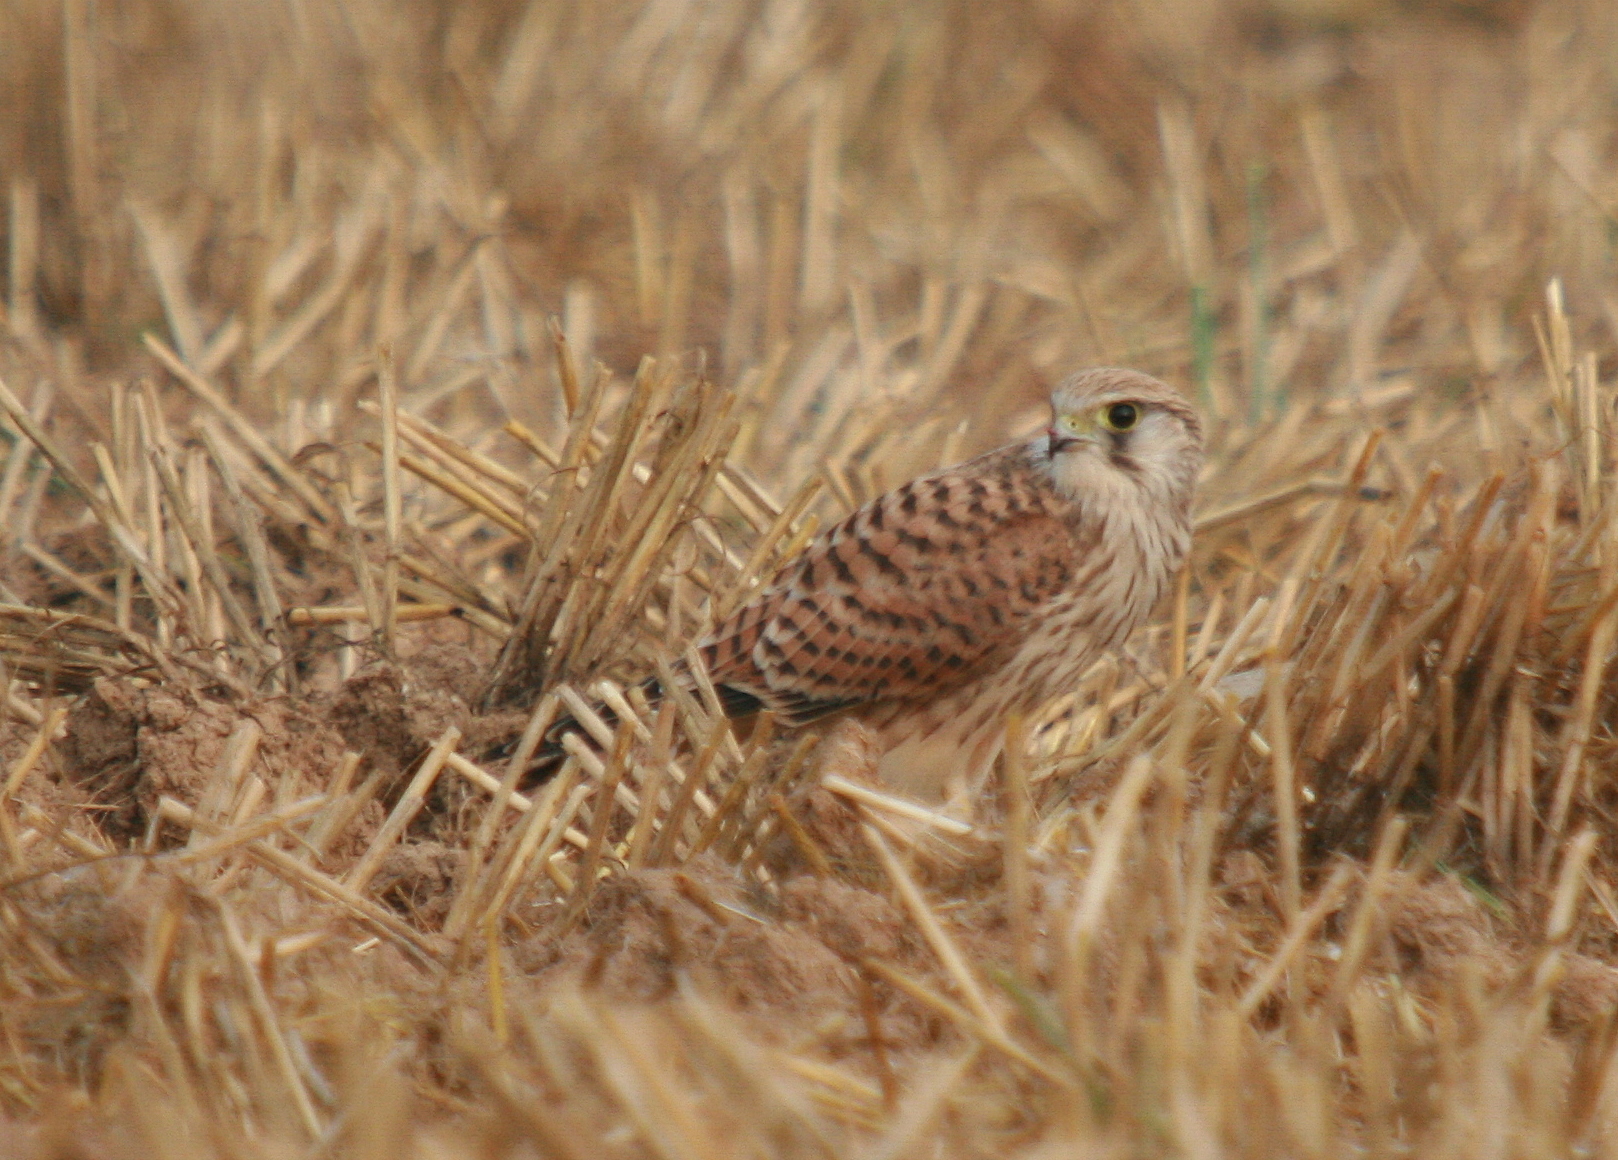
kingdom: Animalia
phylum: Chordata
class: Aves
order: Falconiformes
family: Falconidae
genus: Falco
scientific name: Falco tinnunculus
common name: Common kestrel
